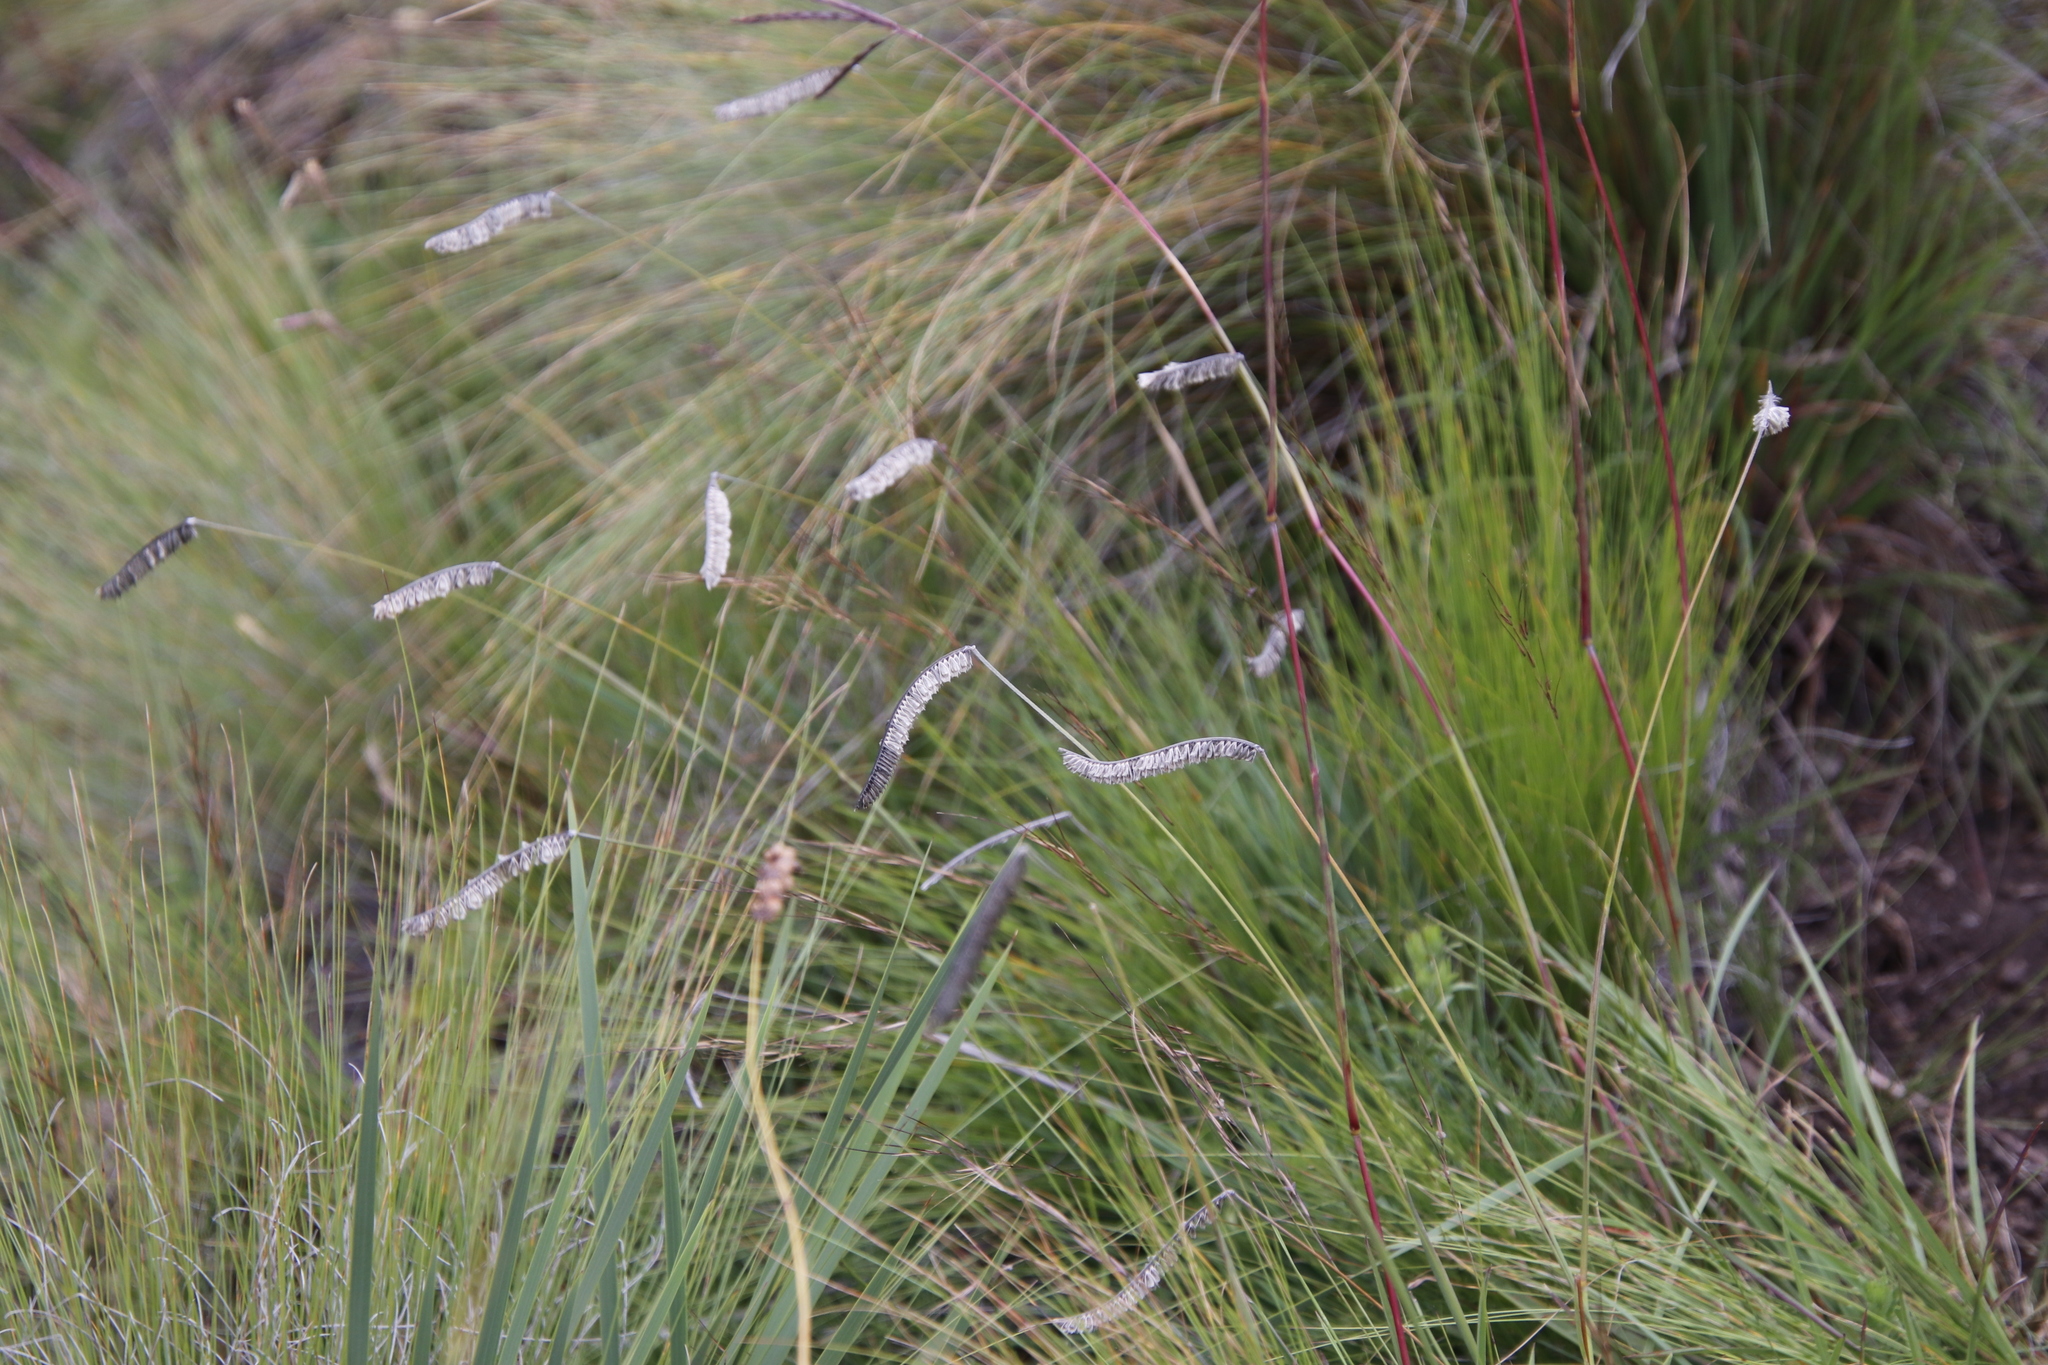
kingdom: Plantae
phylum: Tracheophyta
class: Liliopsida
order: Poales
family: Poaceae
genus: Harpochloa
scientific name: Harpochloa falx
